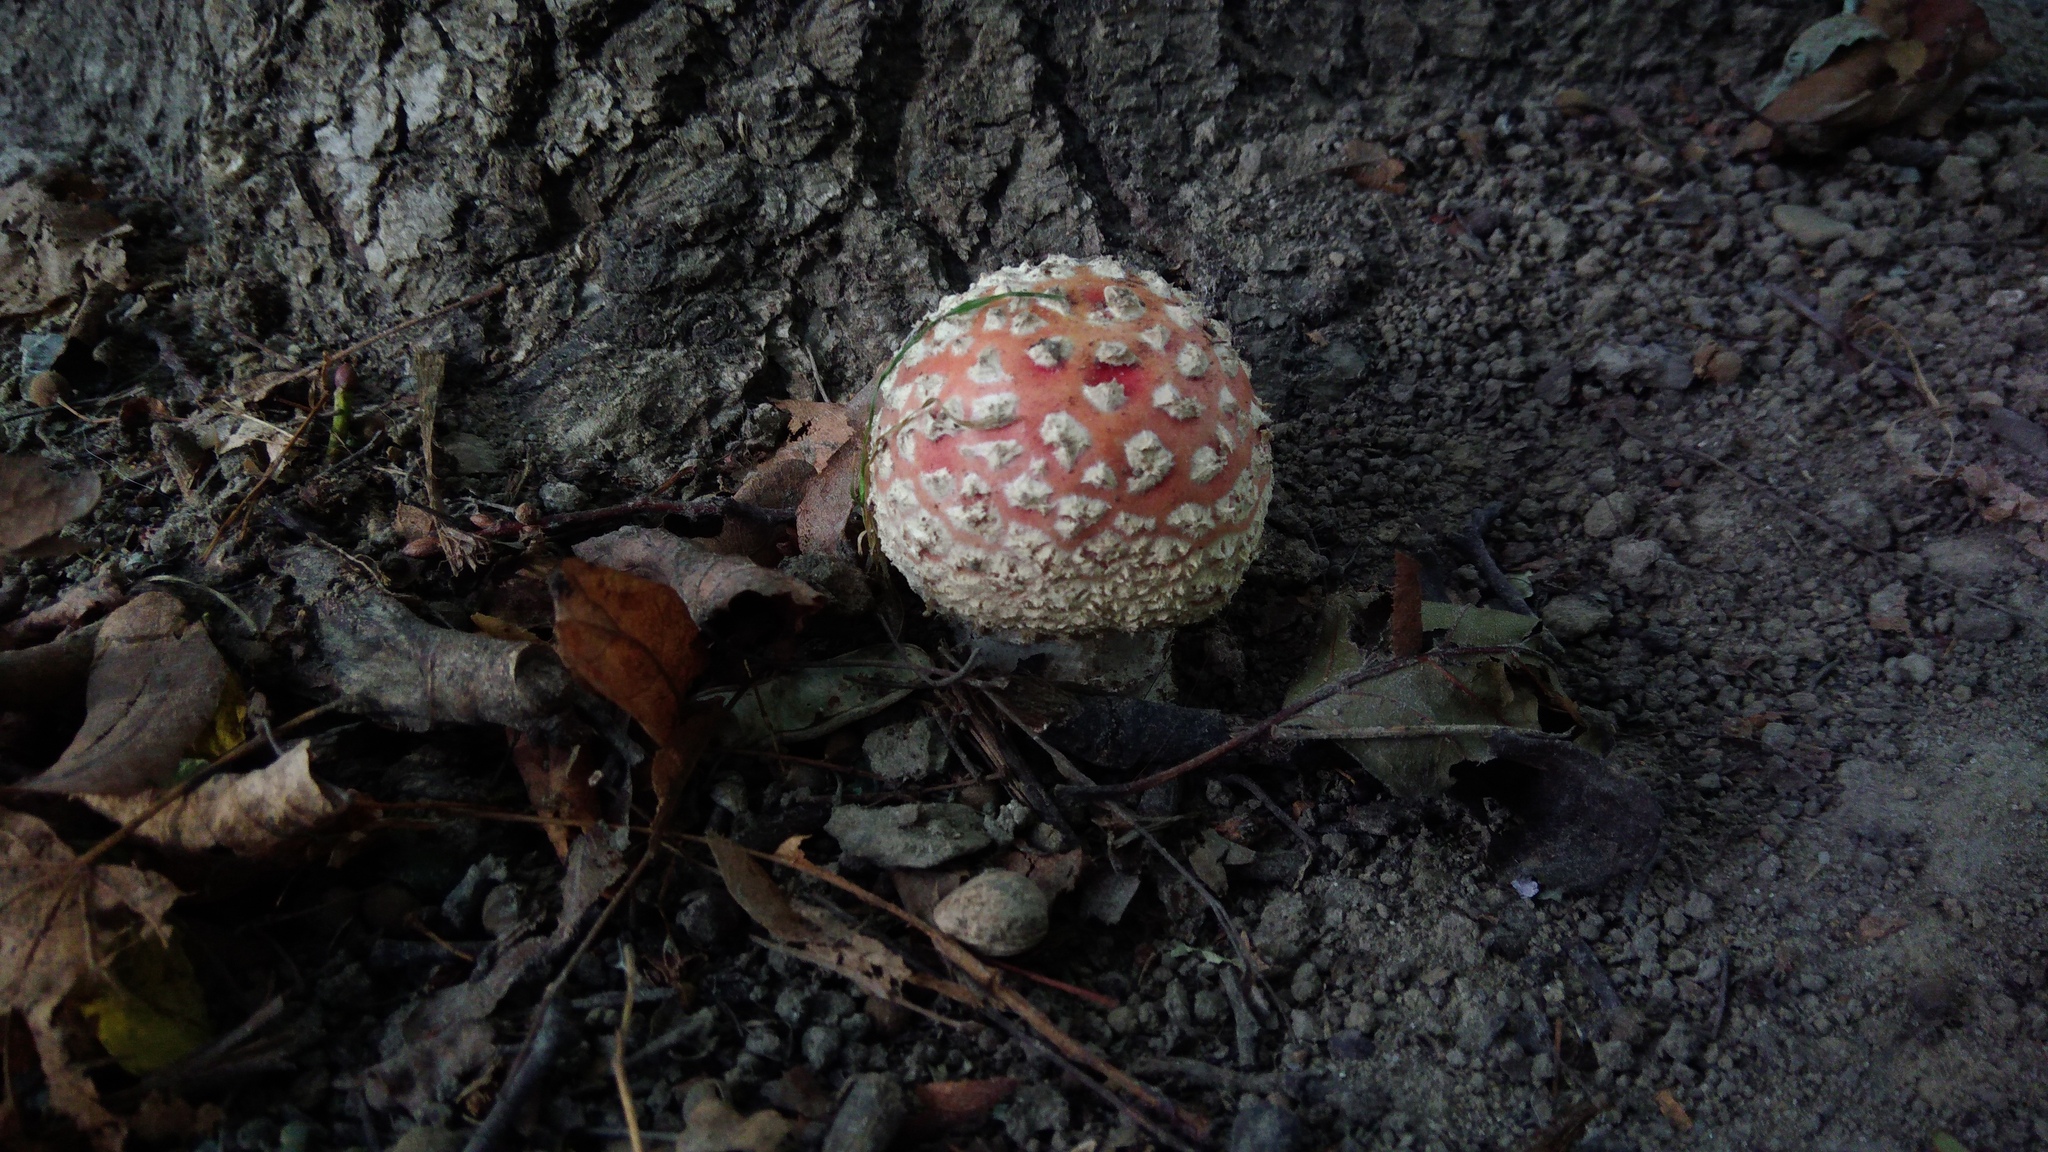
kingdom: Fungi
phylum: Basidiomycota
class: Agaricomycetes
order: Agaricales
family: Amanitaceae
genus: Amanita
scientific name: Amanita muscaria
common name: Fly agaric
